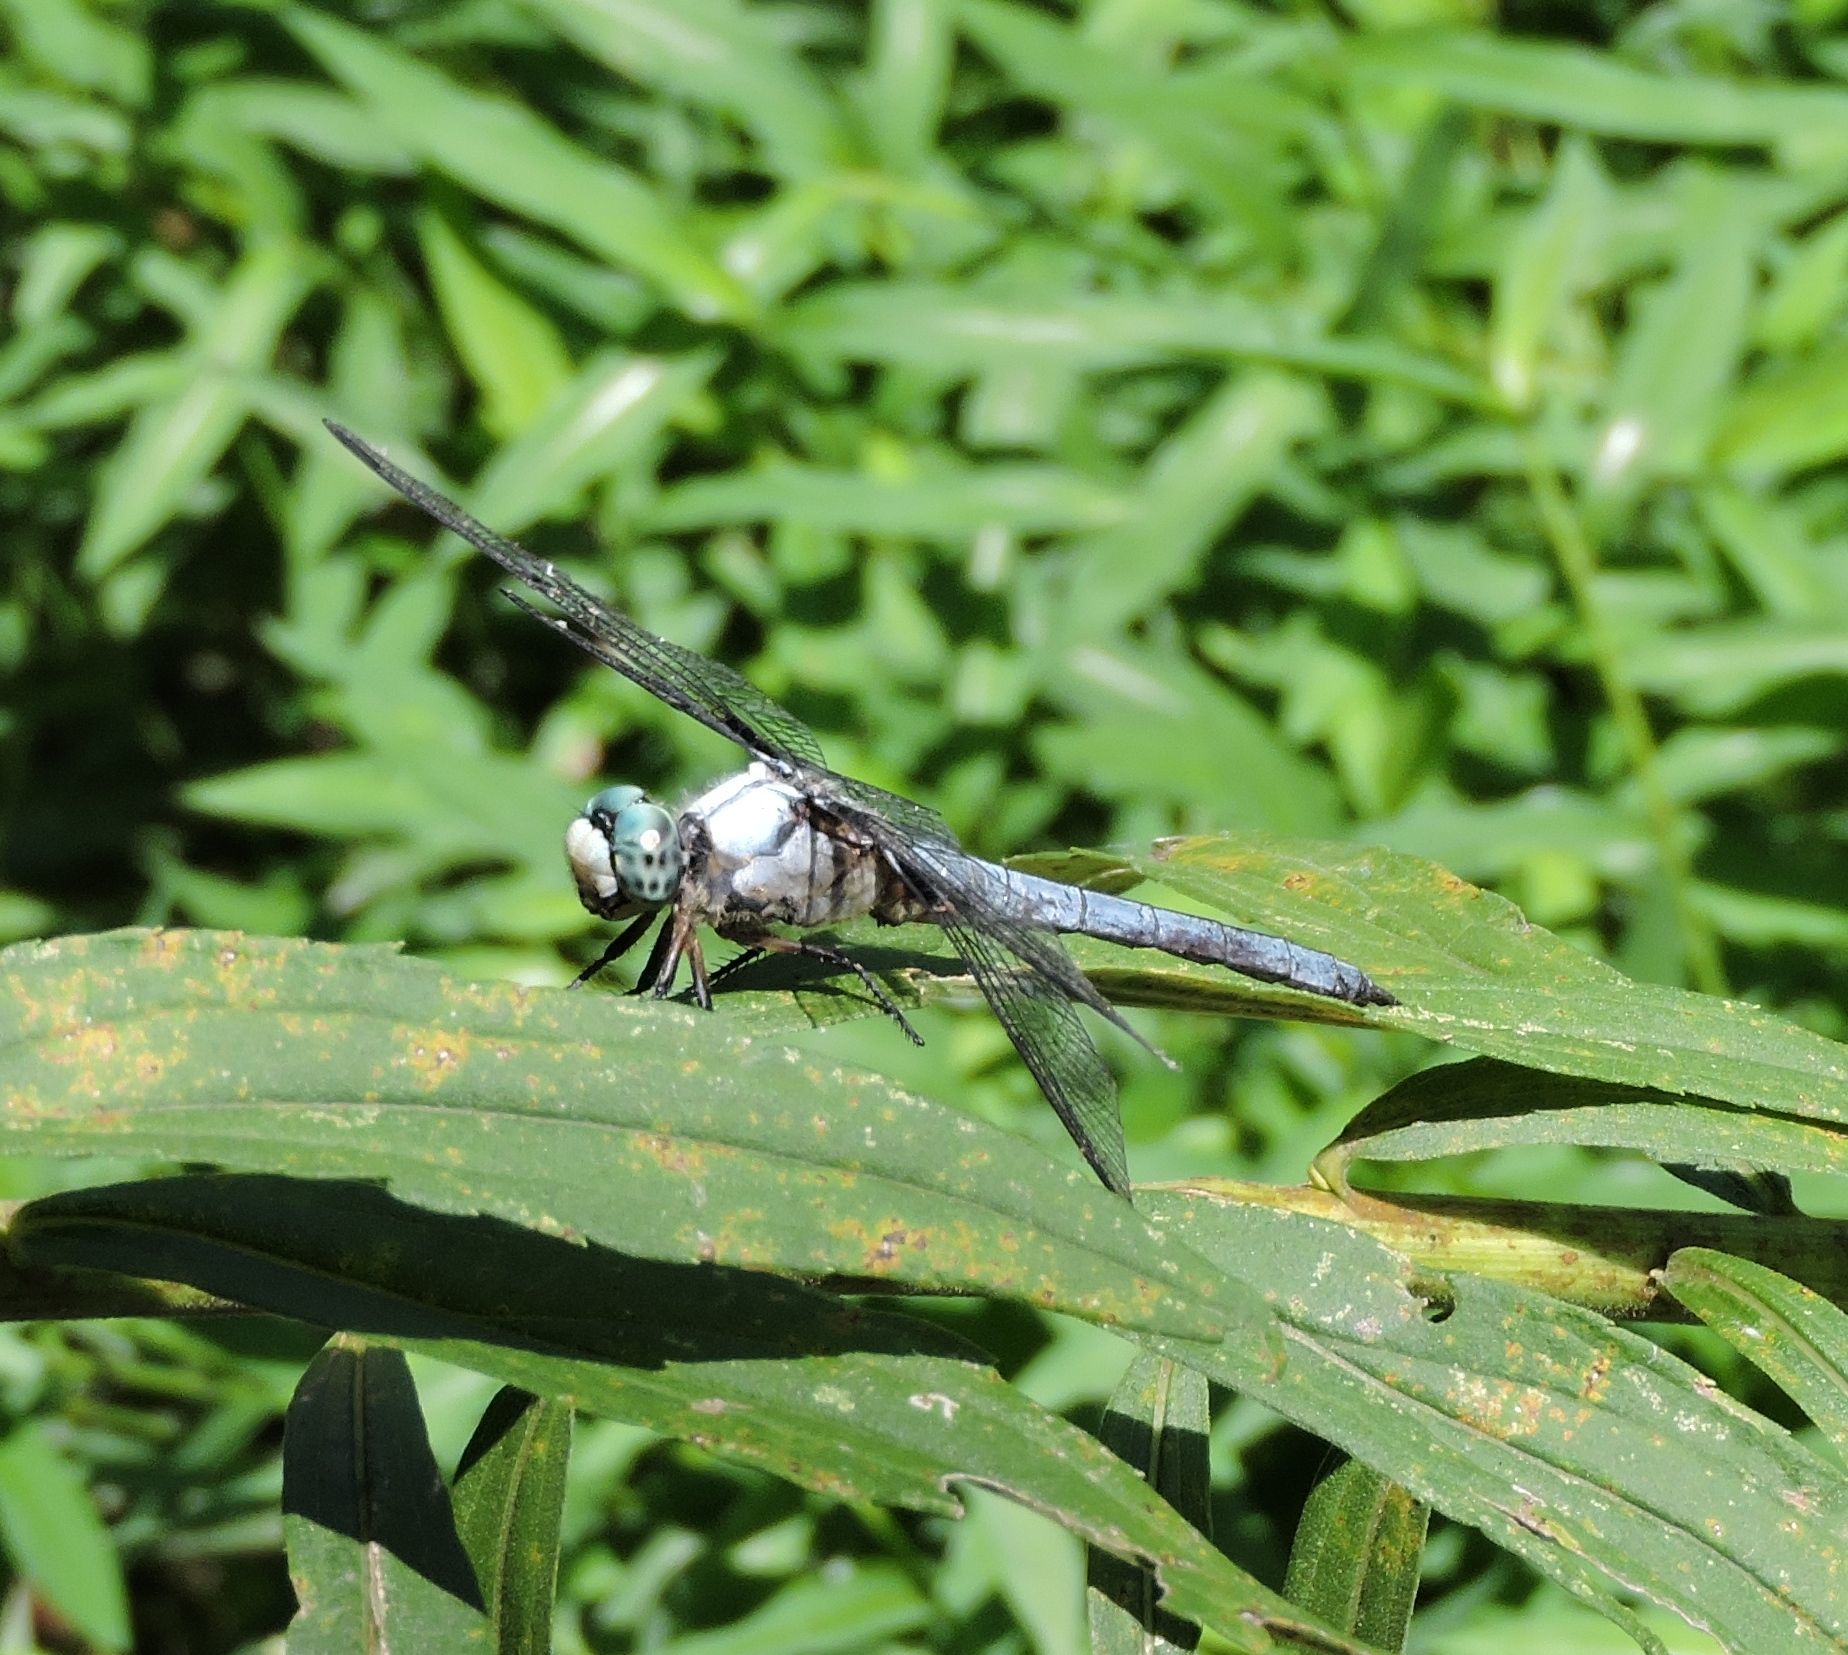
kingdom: Animalia
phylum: Arthropoda
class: Insecta
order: Odonata
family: Libellulidae
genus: Libellula
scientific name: Libellula vibrans
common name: Great blue skimmer
